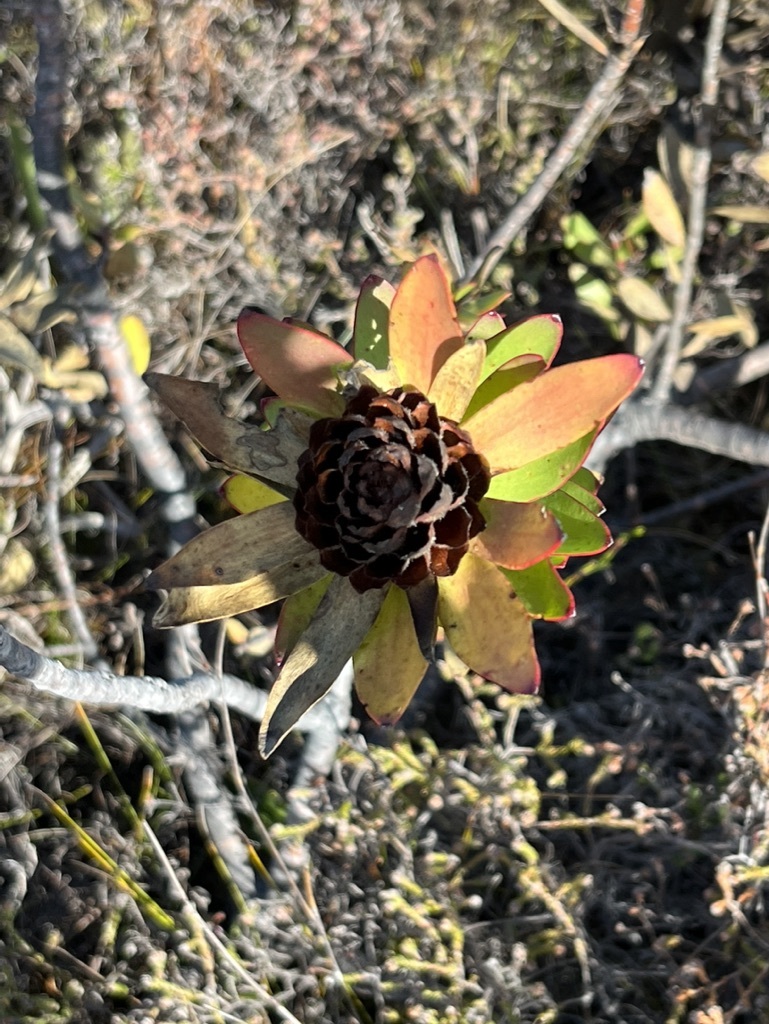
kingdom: Plantae
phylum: Tracheophyta
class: Magnoliopsida
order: Proteales
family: Proteaceae
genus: Leucadendron
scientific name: Leucadendron elimense
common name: Elim conebush
